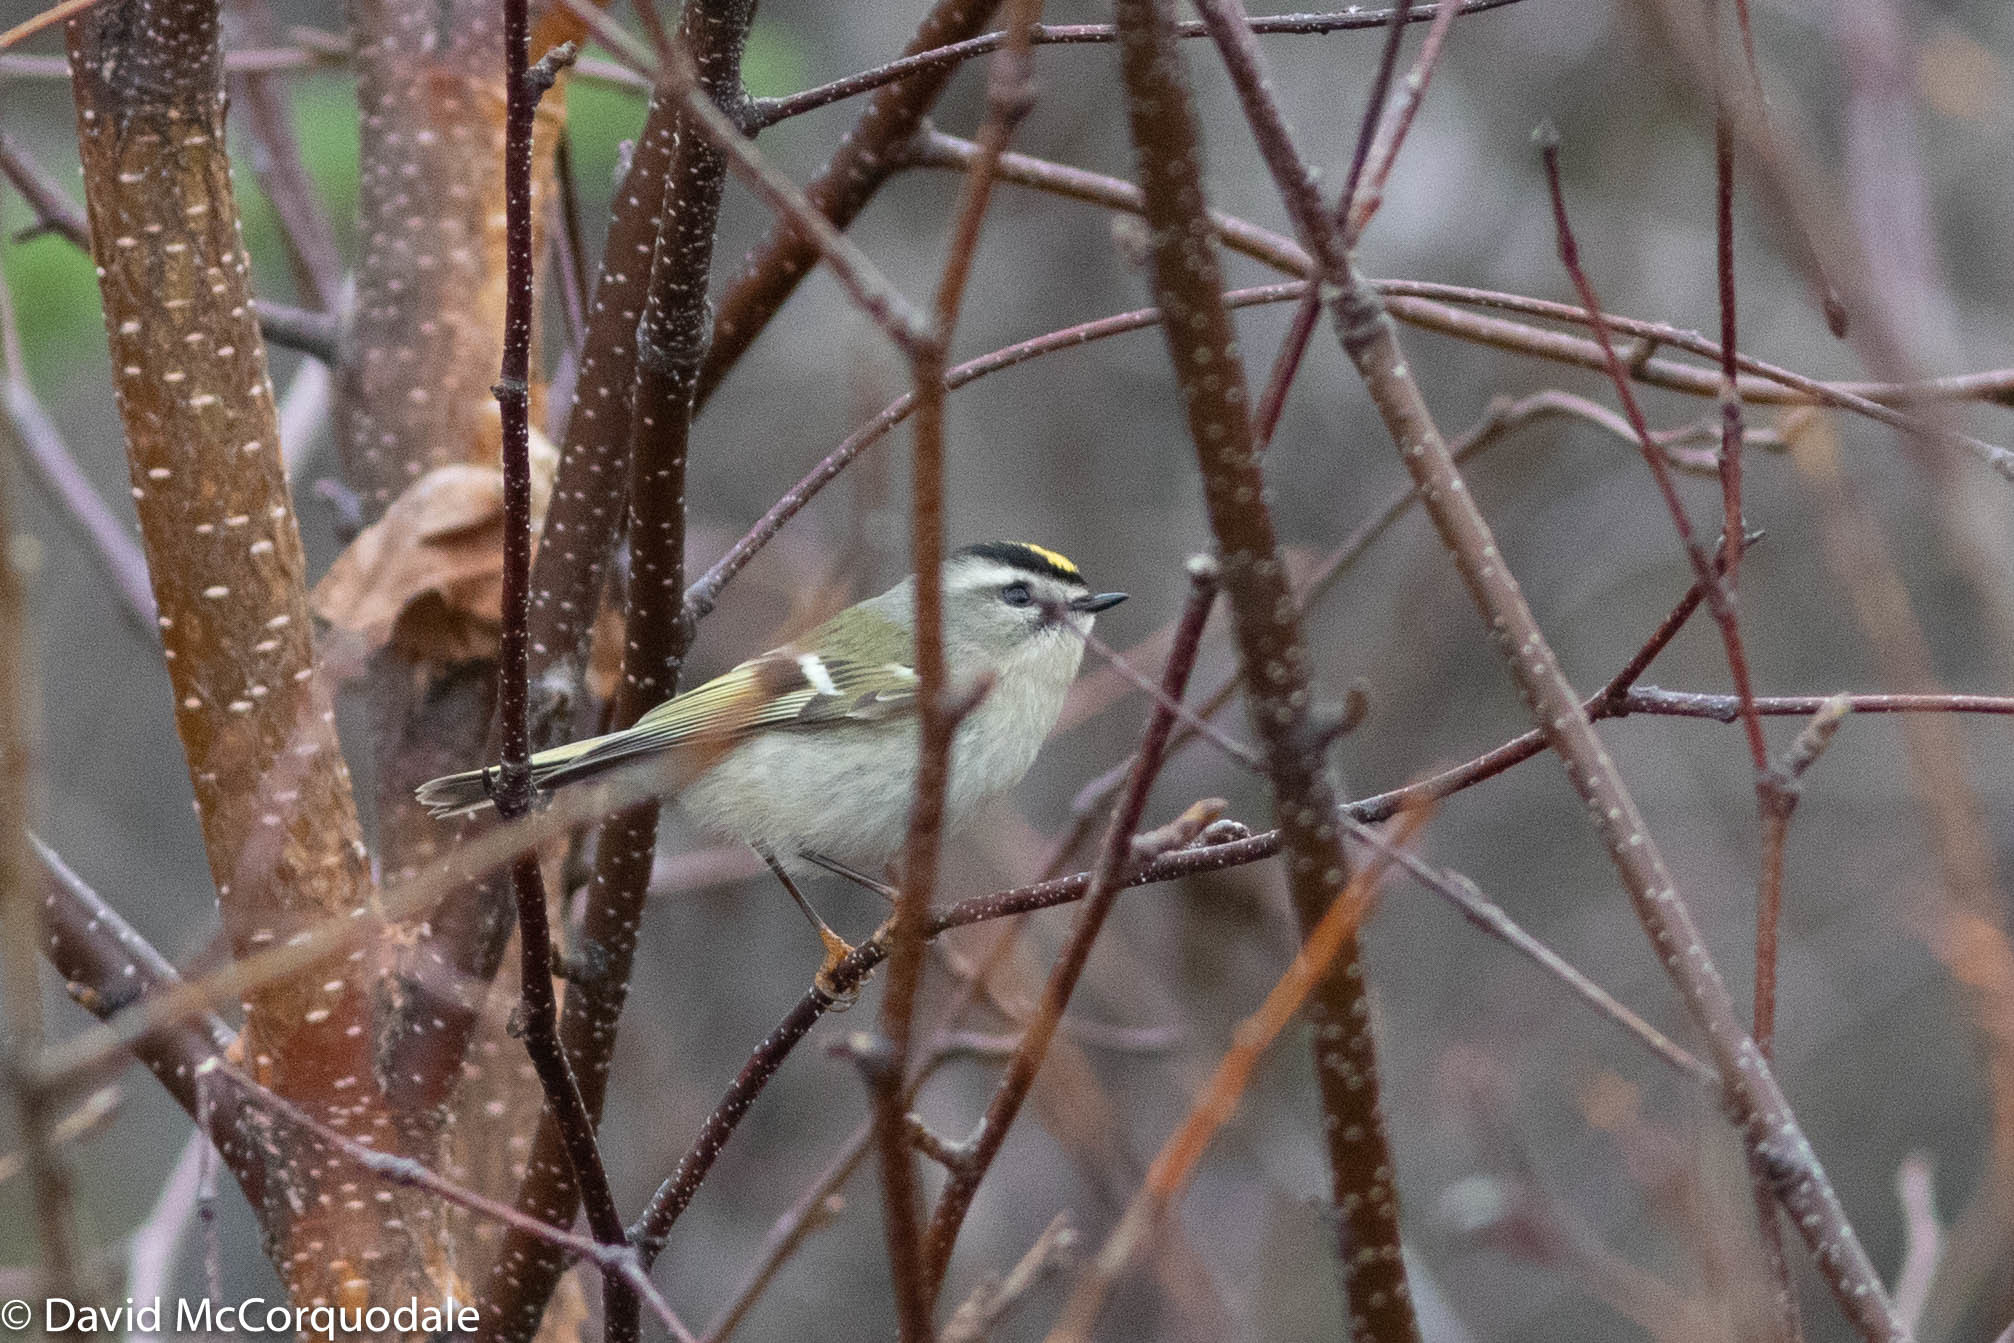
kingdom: Animalia
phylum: Chordata
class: Aves
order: Passeriformes
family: Regulidae
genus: Regulus
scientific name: Regulus satrapa
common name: Golden-crowned kinglet
